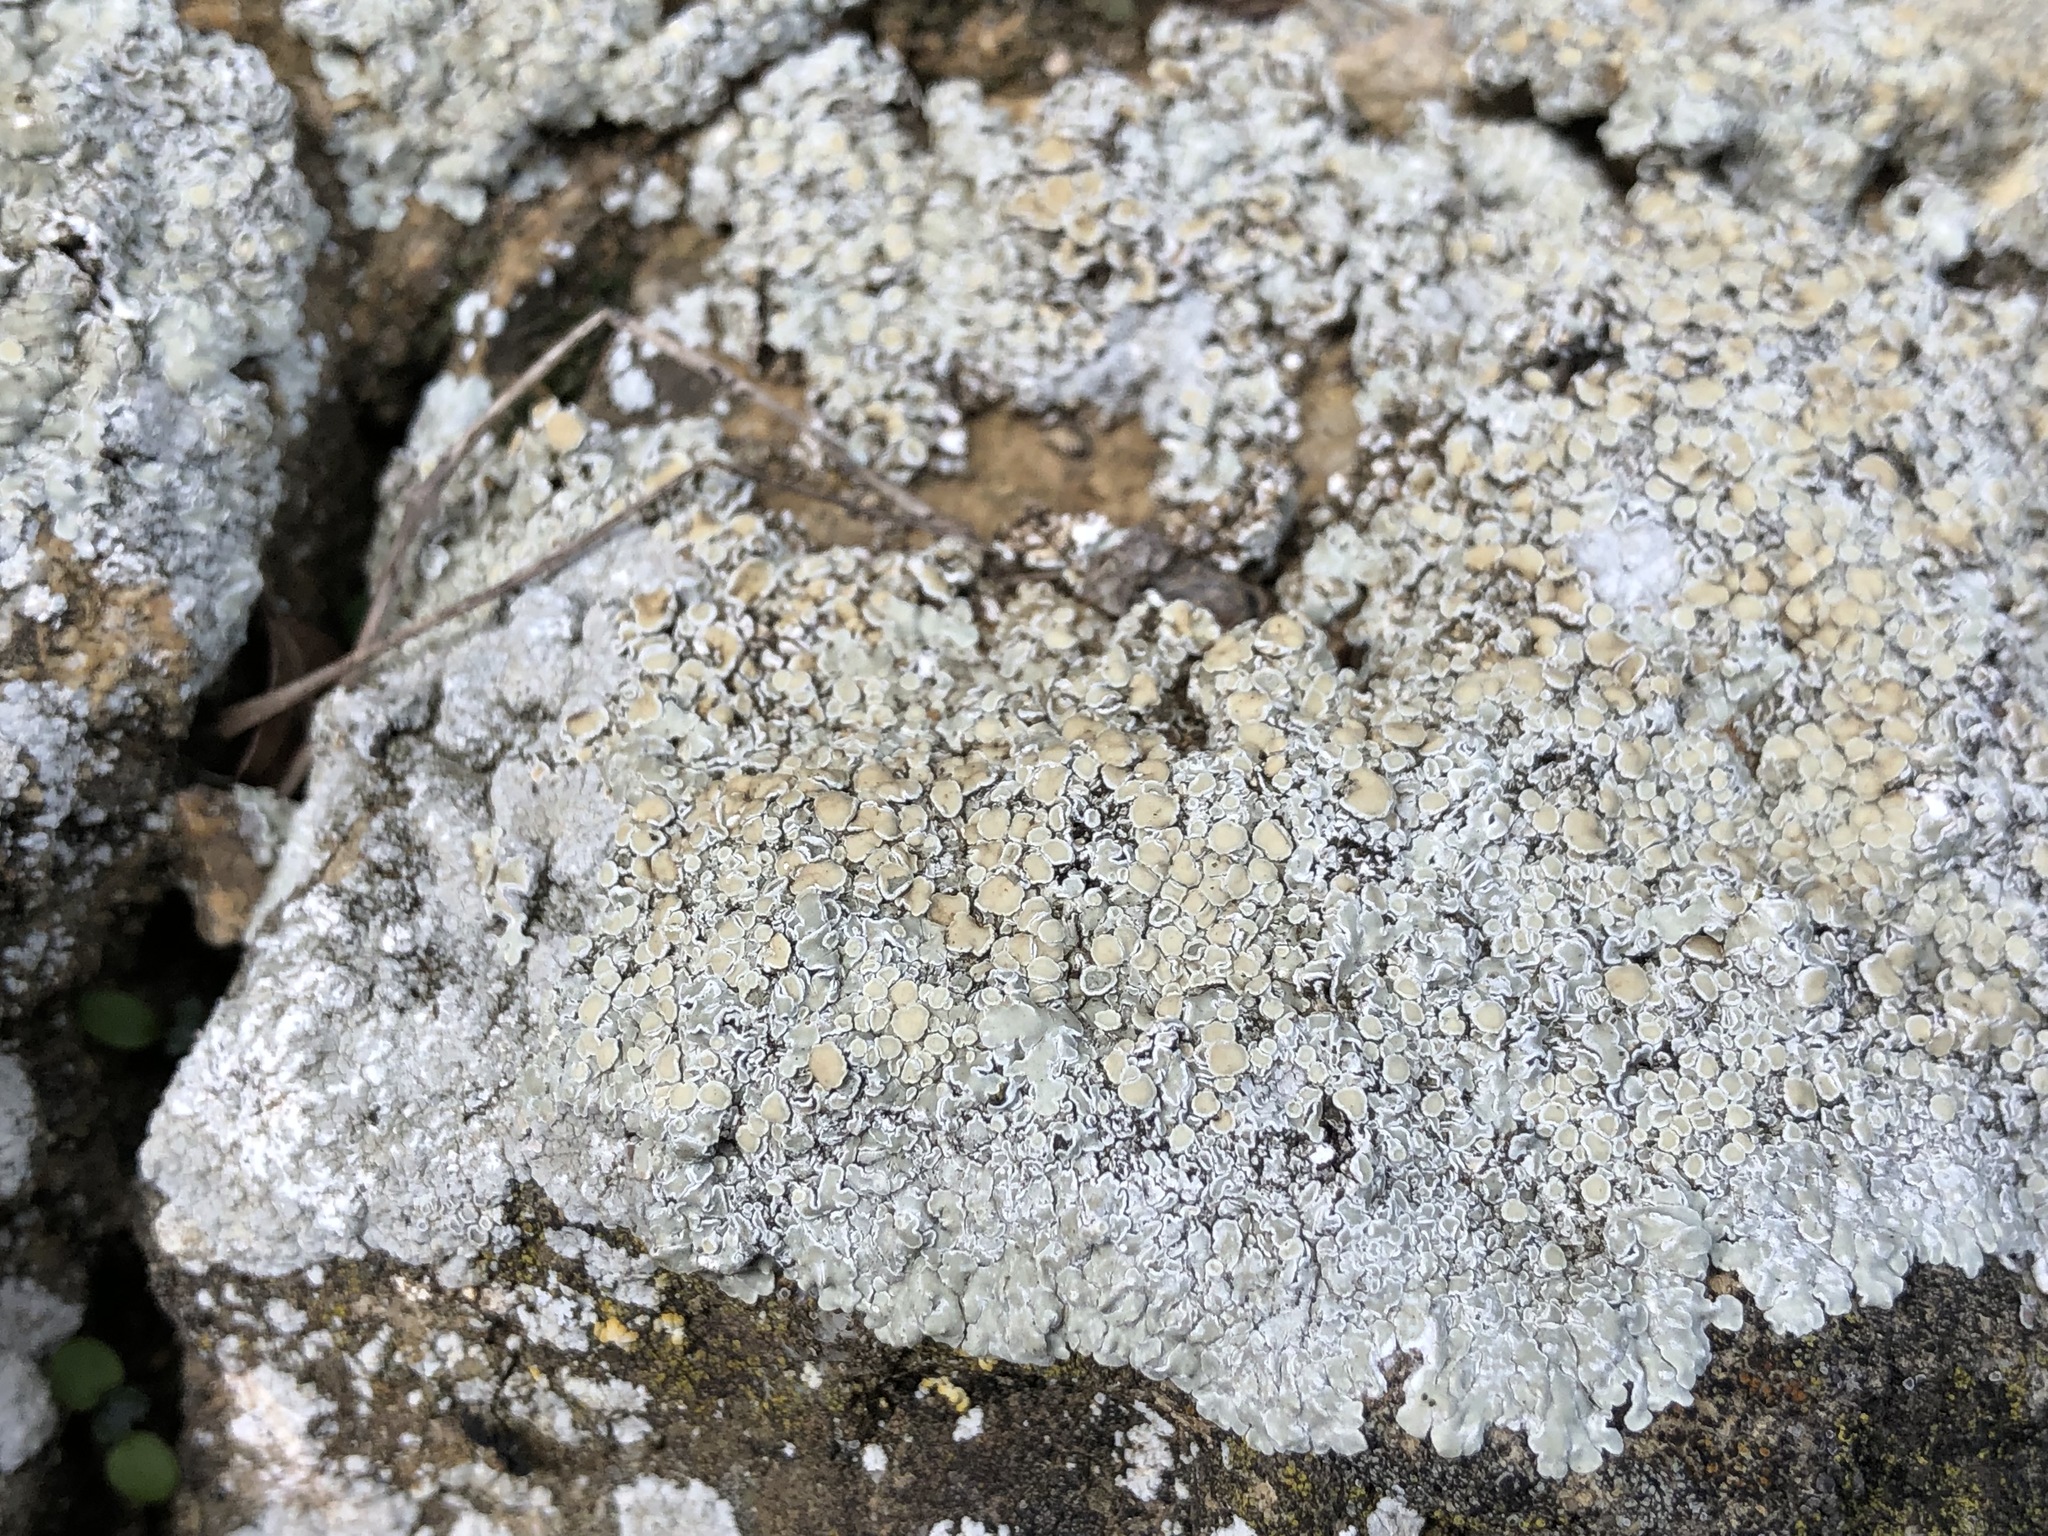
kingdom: Fungi
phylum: Ascomycota
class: Lecanoromycetes
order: Lecanorales
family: Lecanoraceae
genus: Protoparmeliopsis
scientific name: Protoparmeliopsis muralis
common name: Stonewall rim lichen
